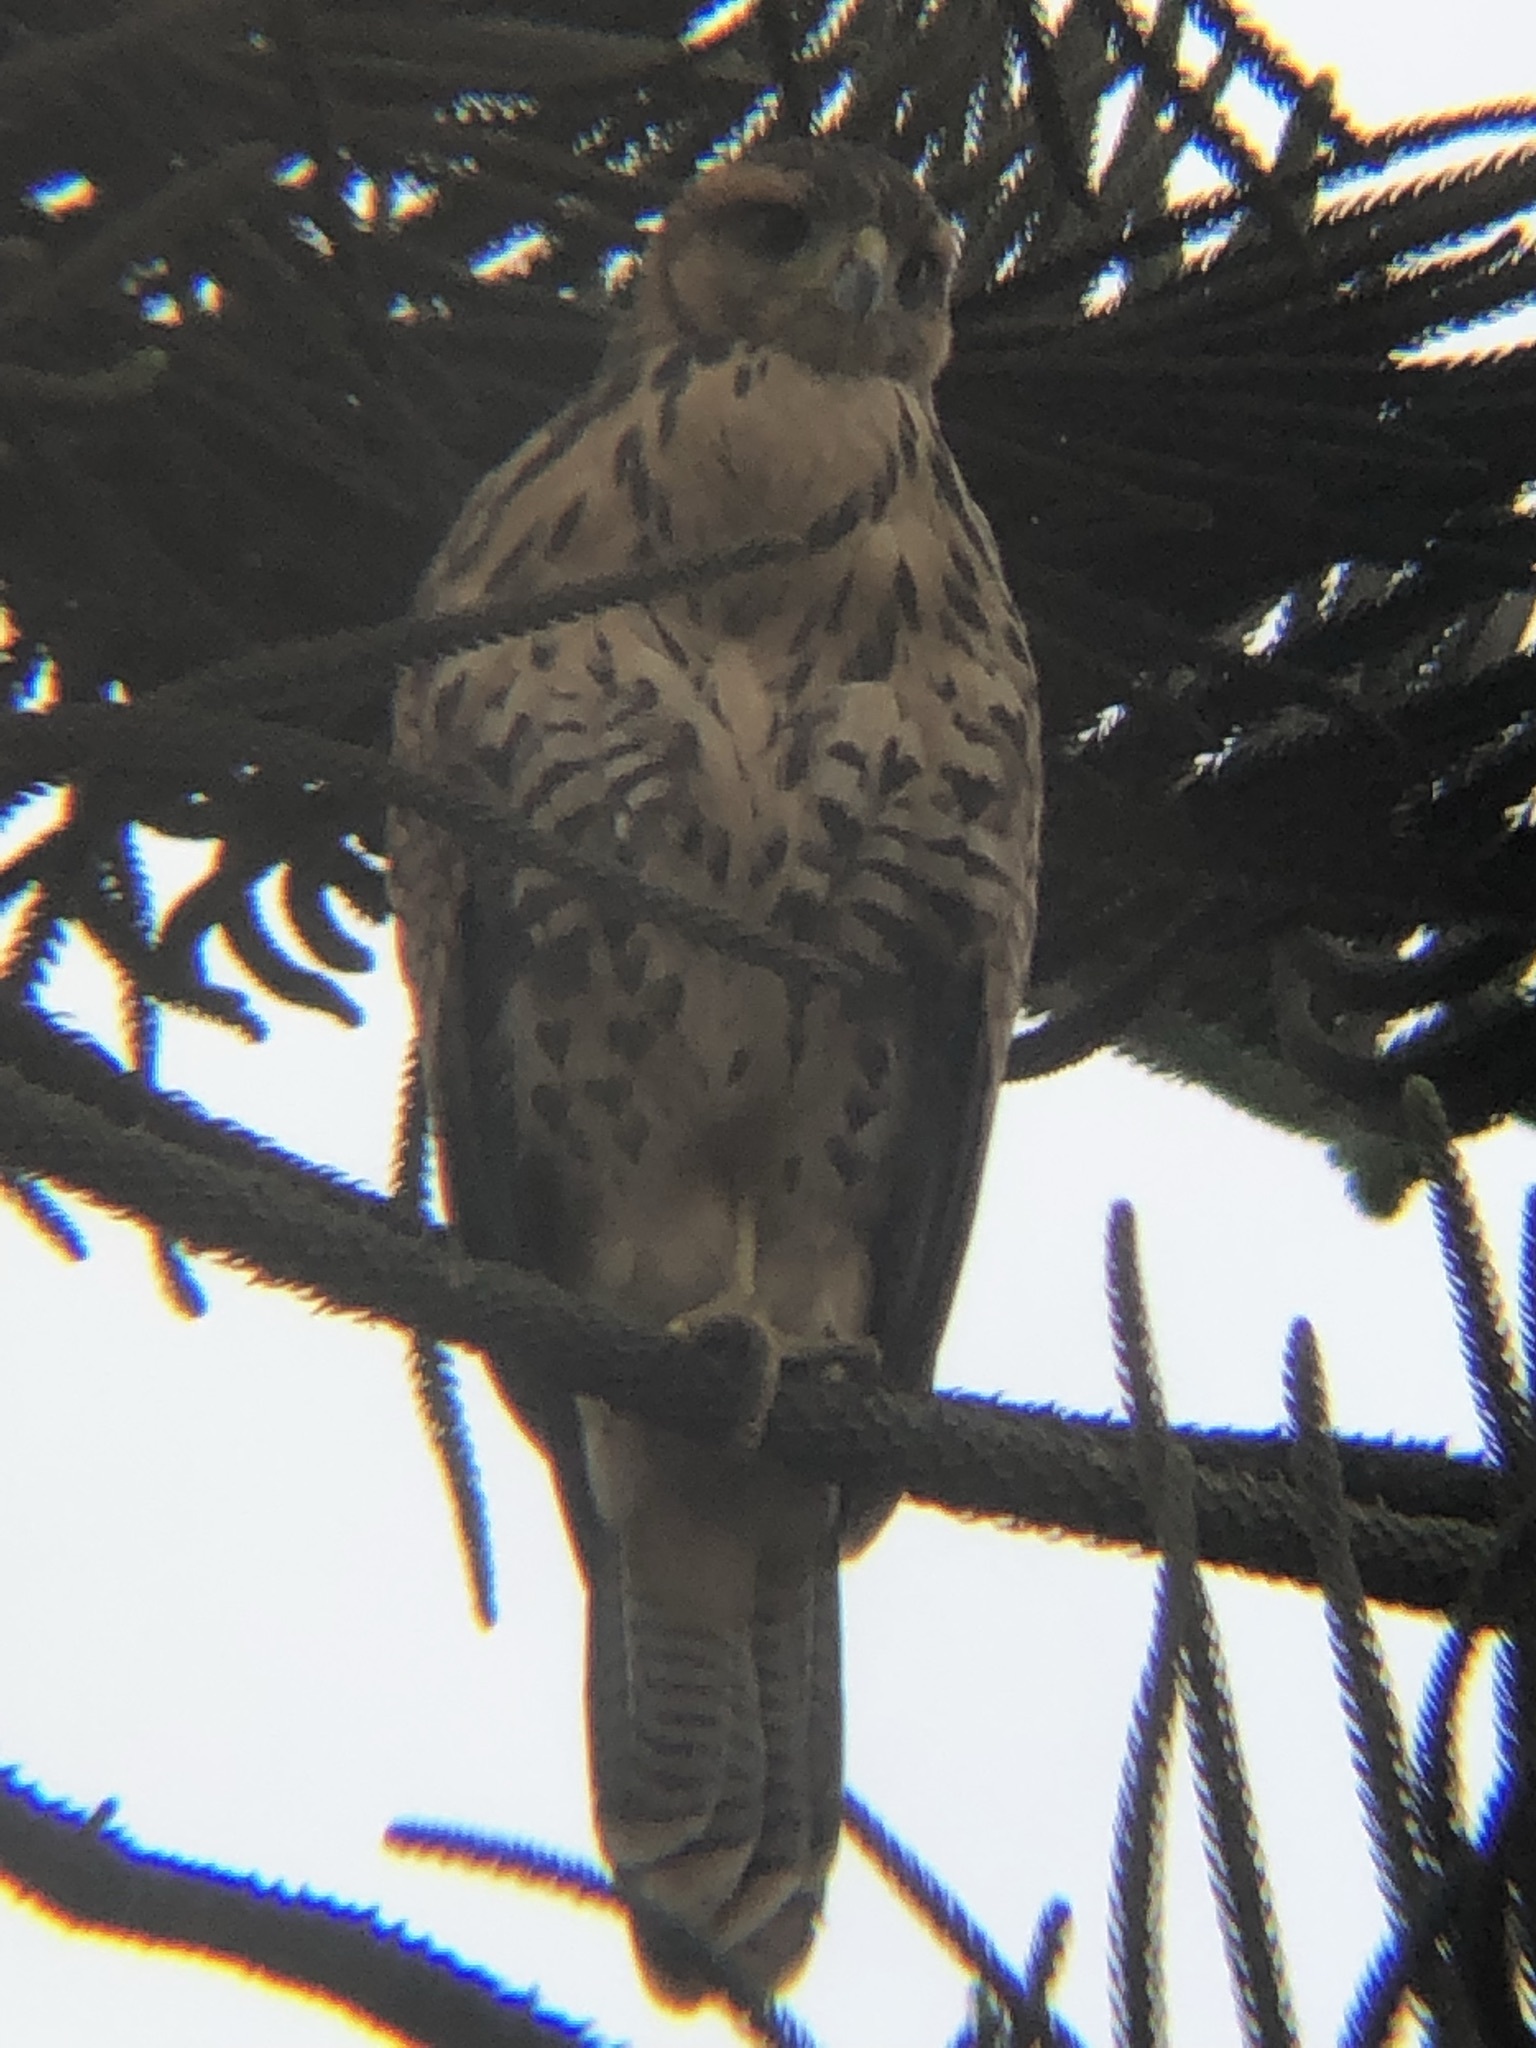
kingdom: Animalia
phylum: Chordata
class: Aves
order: Accipitriformes
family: Accipitridae
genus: Parabuteo
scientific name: Parabuteo unicinctus
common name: Harris's hawk
